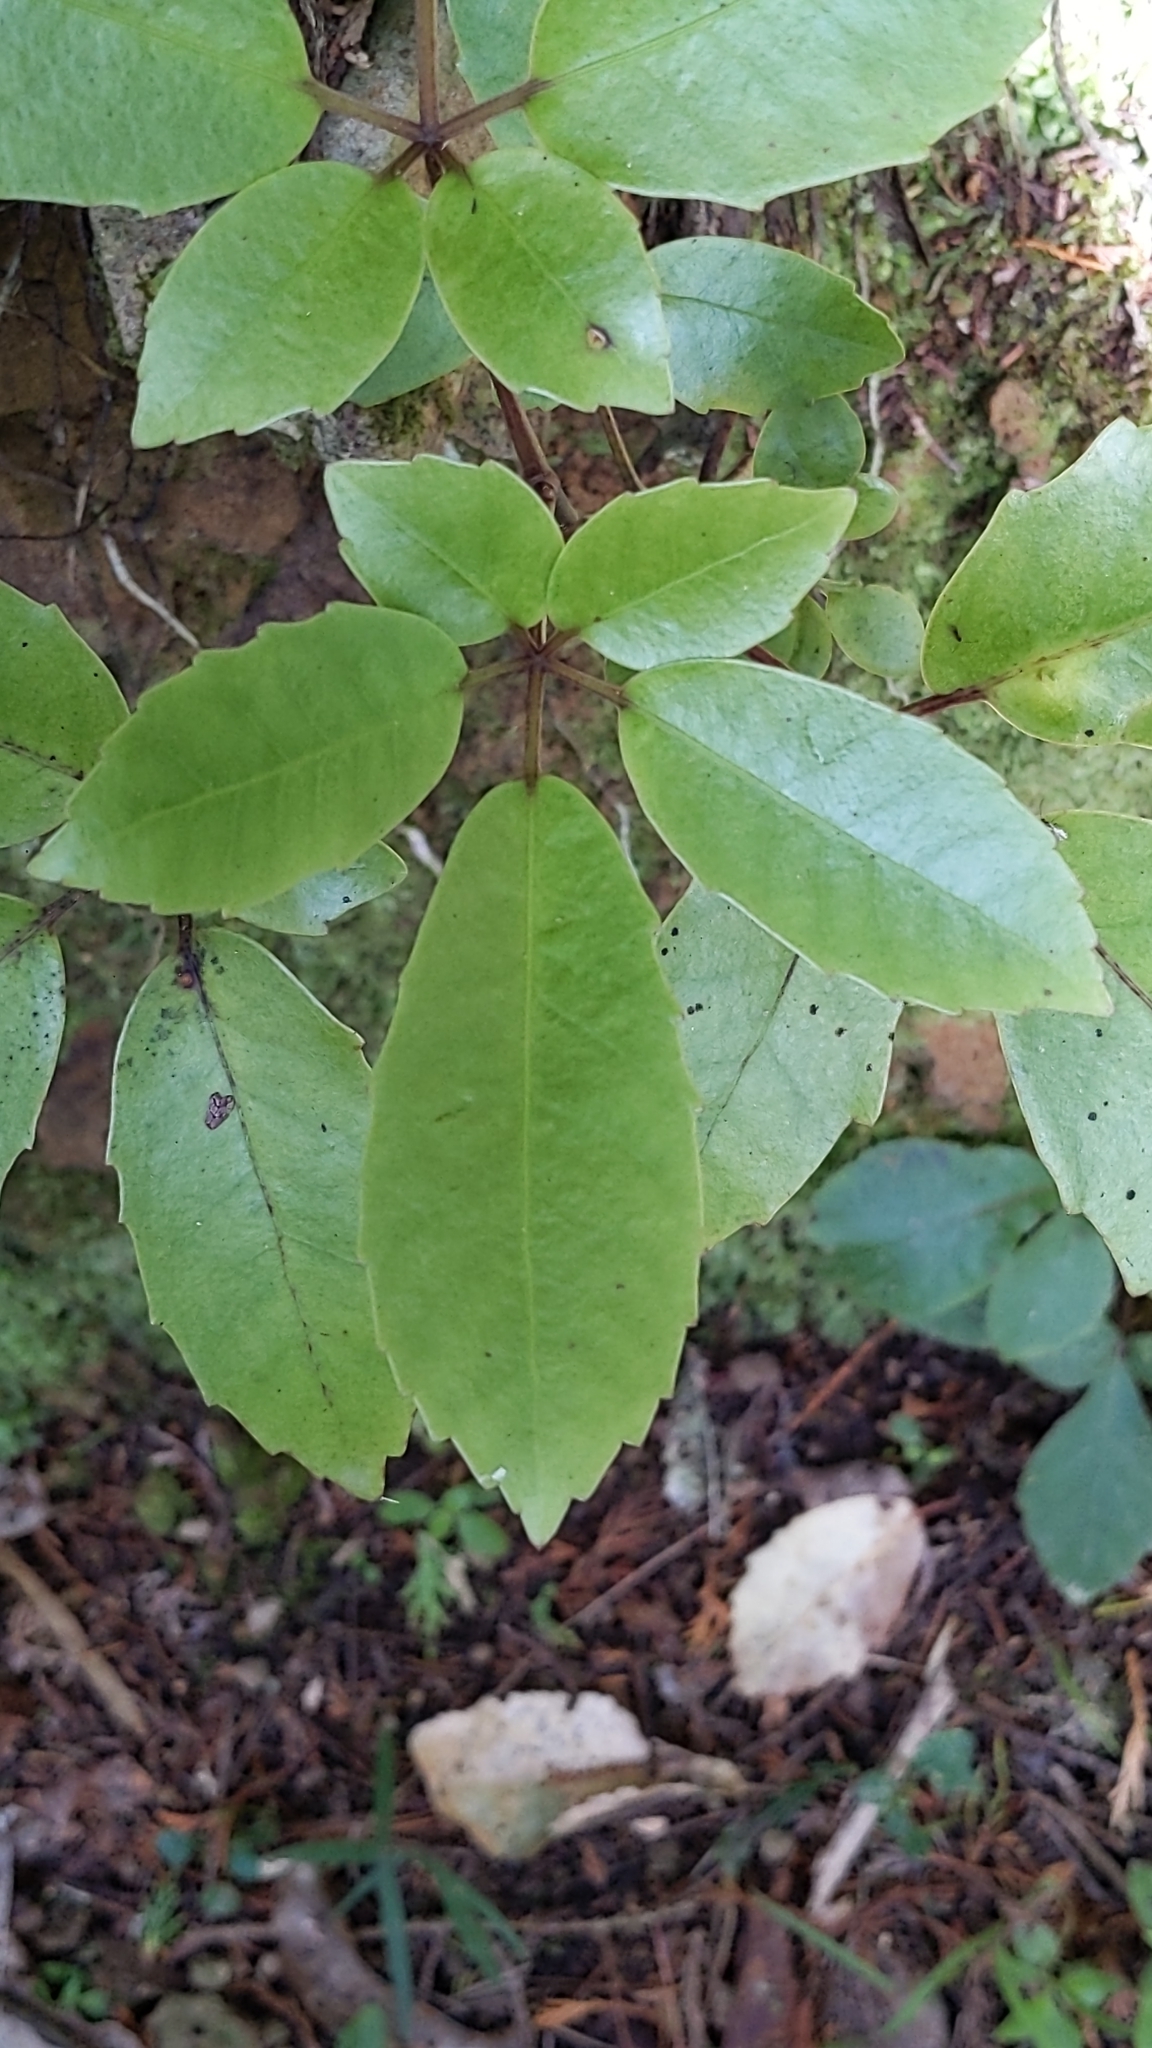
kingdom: Plantae
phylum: Tracheophyta
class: Magnoliopsida
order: Apiales
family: Araliaceae
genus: Neopanax
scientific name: Neopanax arboreus
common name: Five-fingers
